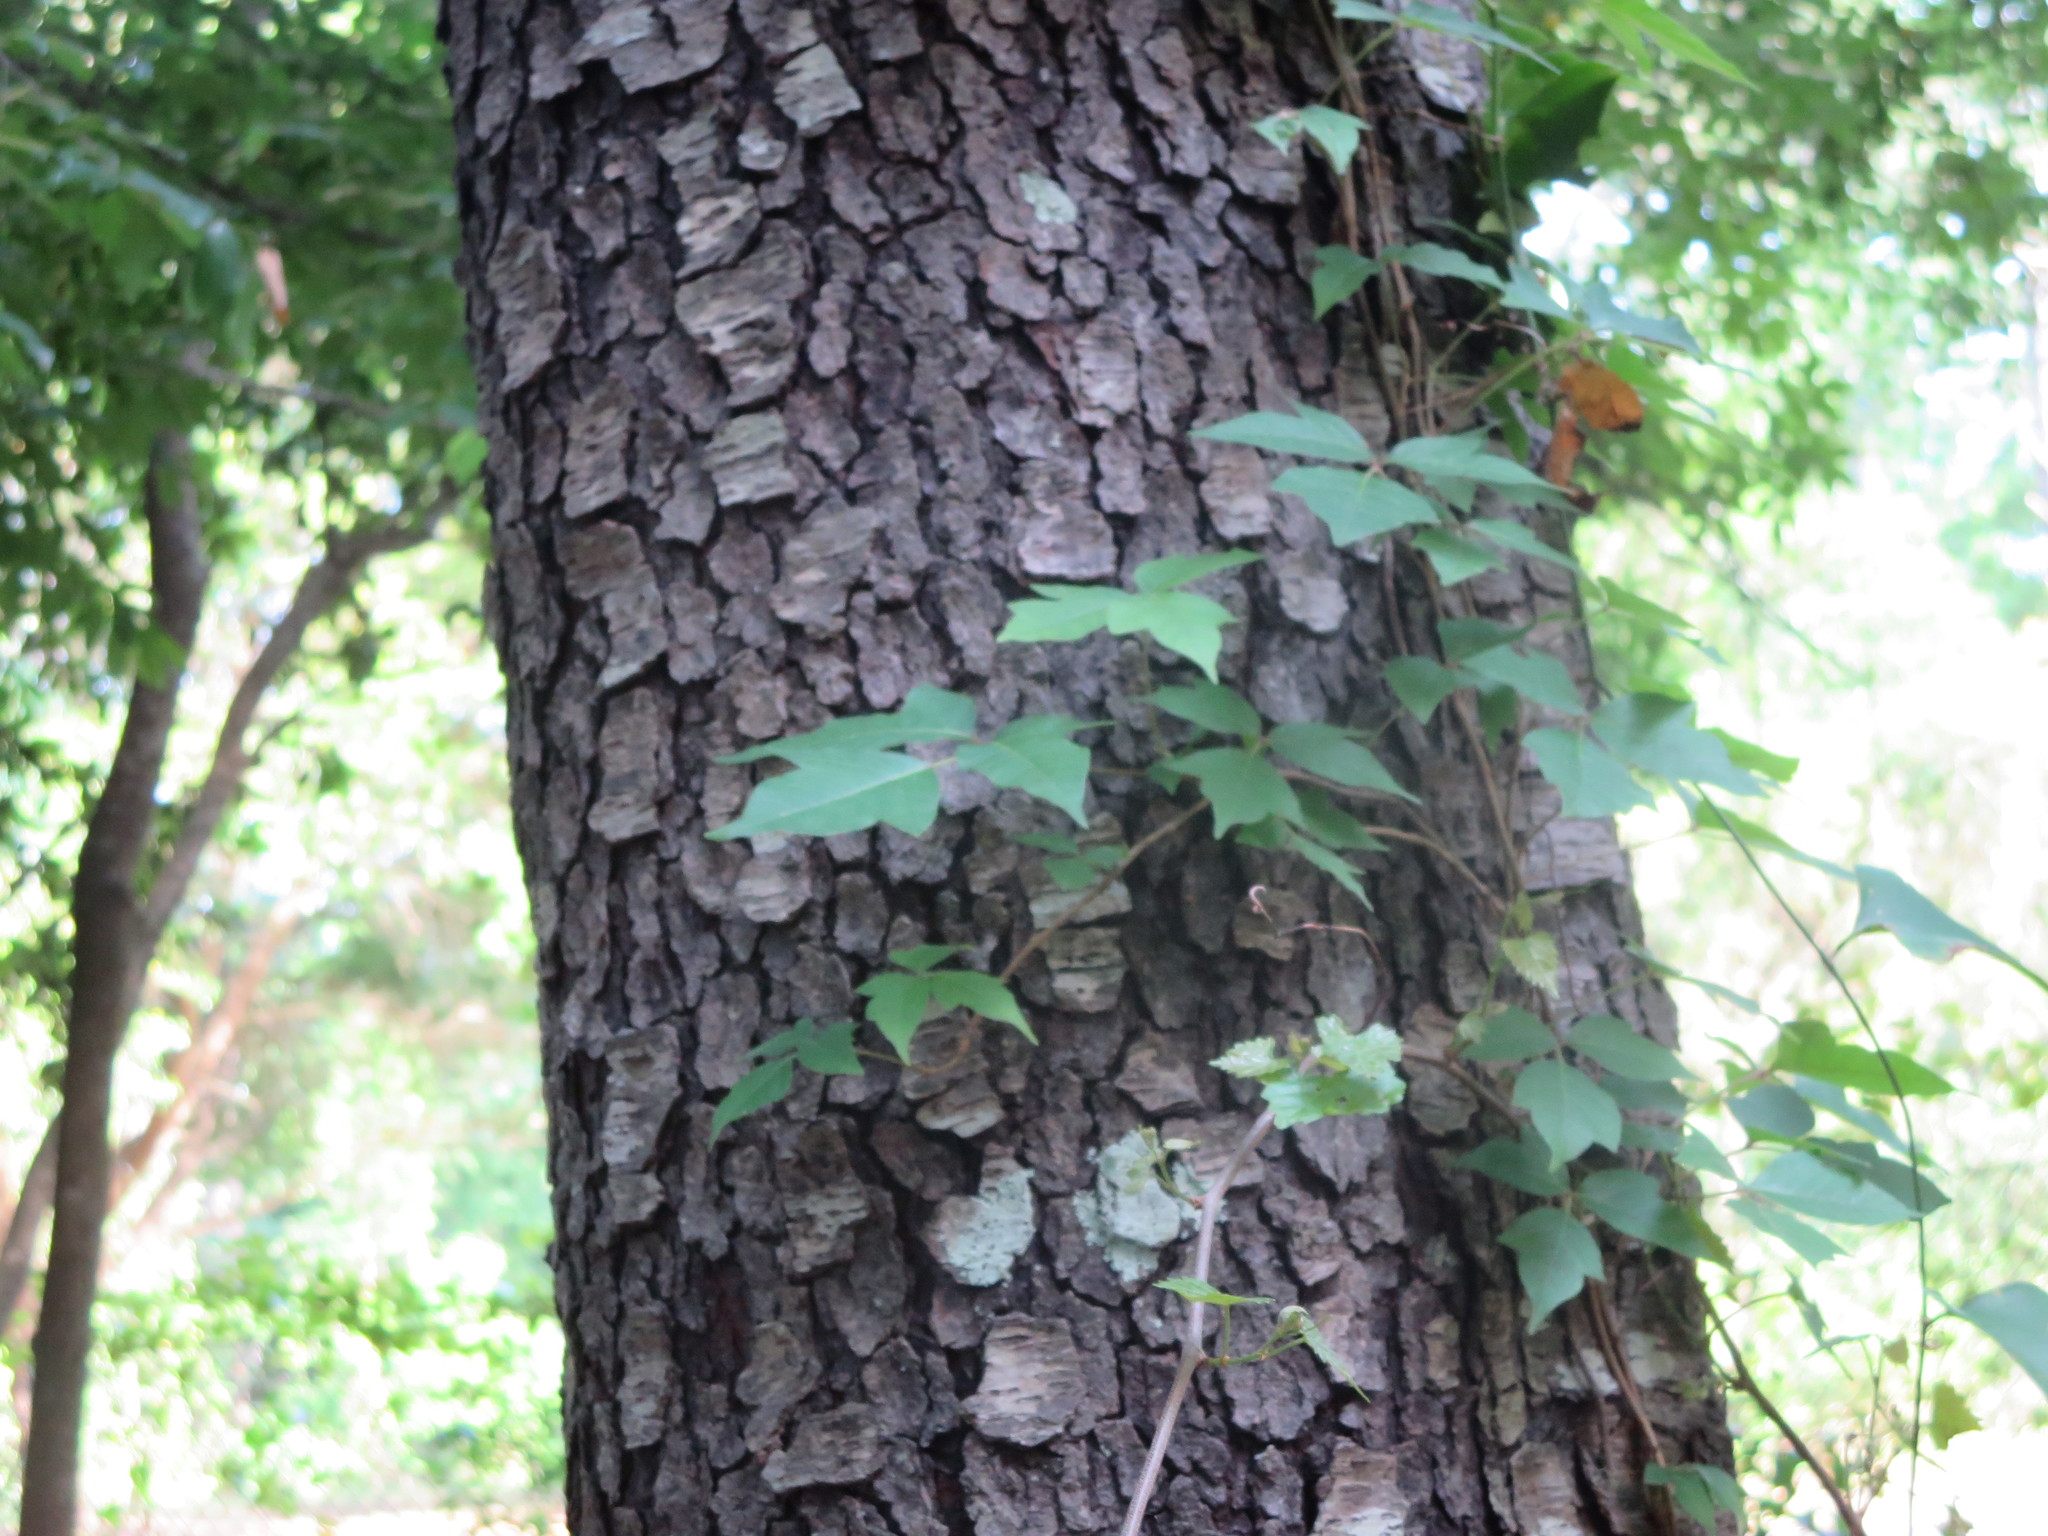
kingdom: Plantae
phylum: Tracheophyta
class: Magnoliopsida
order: Sapindales
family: Anacardiaceae
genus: Toxicodendron
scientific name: Toxicodendron radicans
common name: Poison ivy
